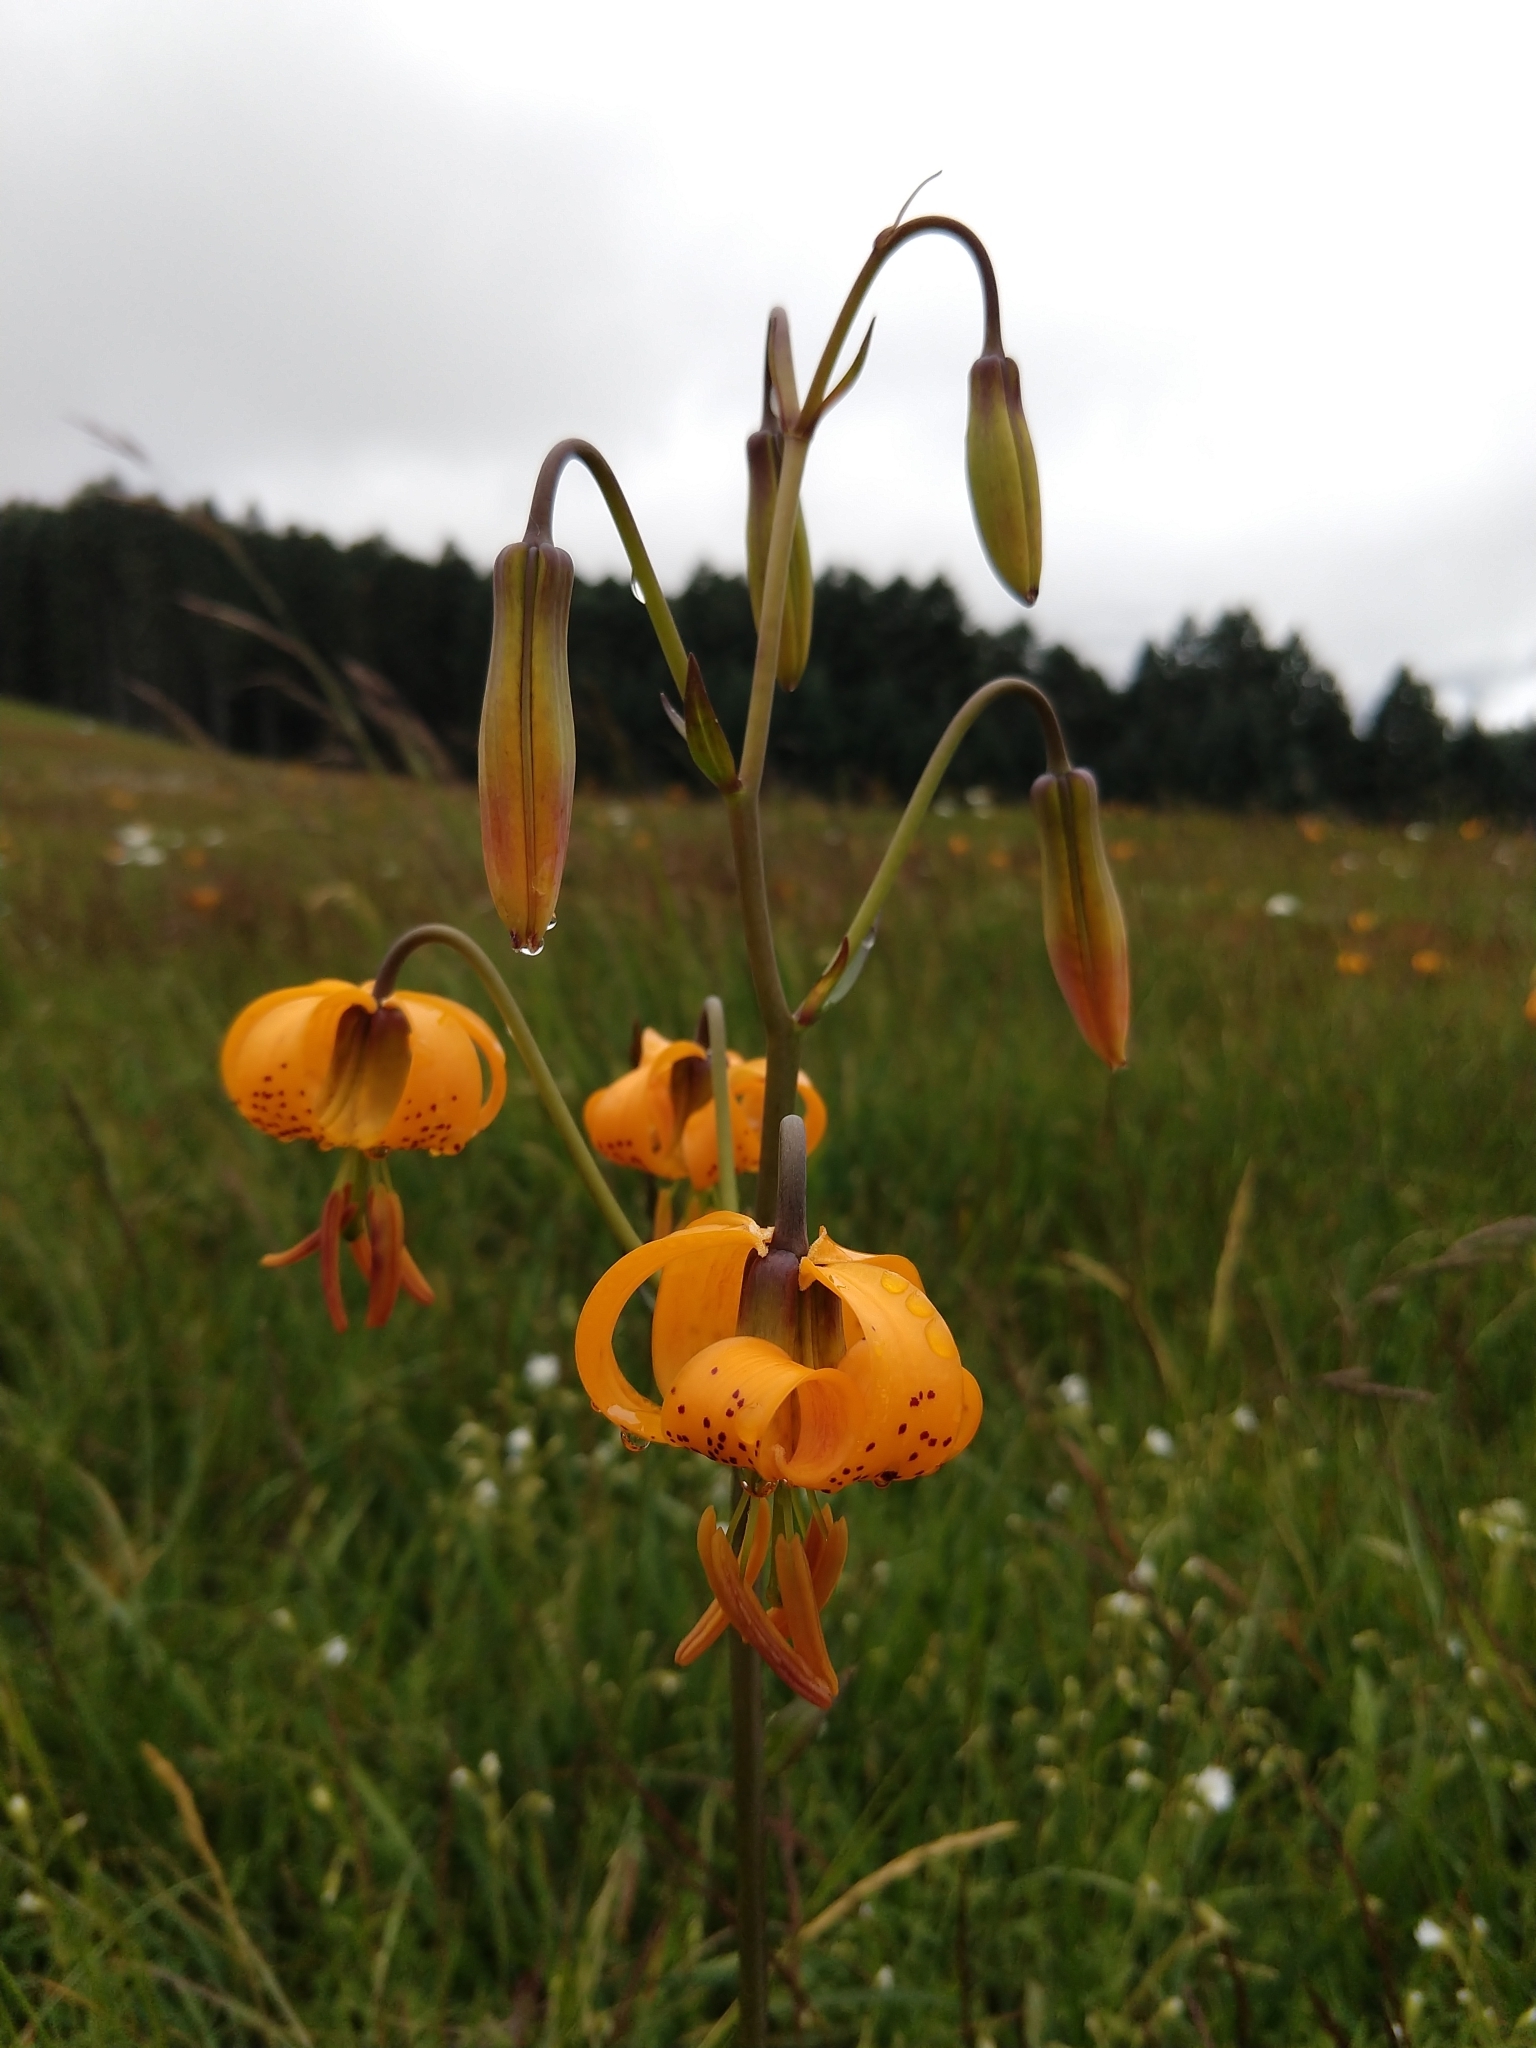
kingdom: Plantae
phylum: Tracheophyta
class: Liliopsida
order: Liliales
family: Liliaceae
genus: Lilium
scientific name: Lilium columbianum
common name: Columbia lily
